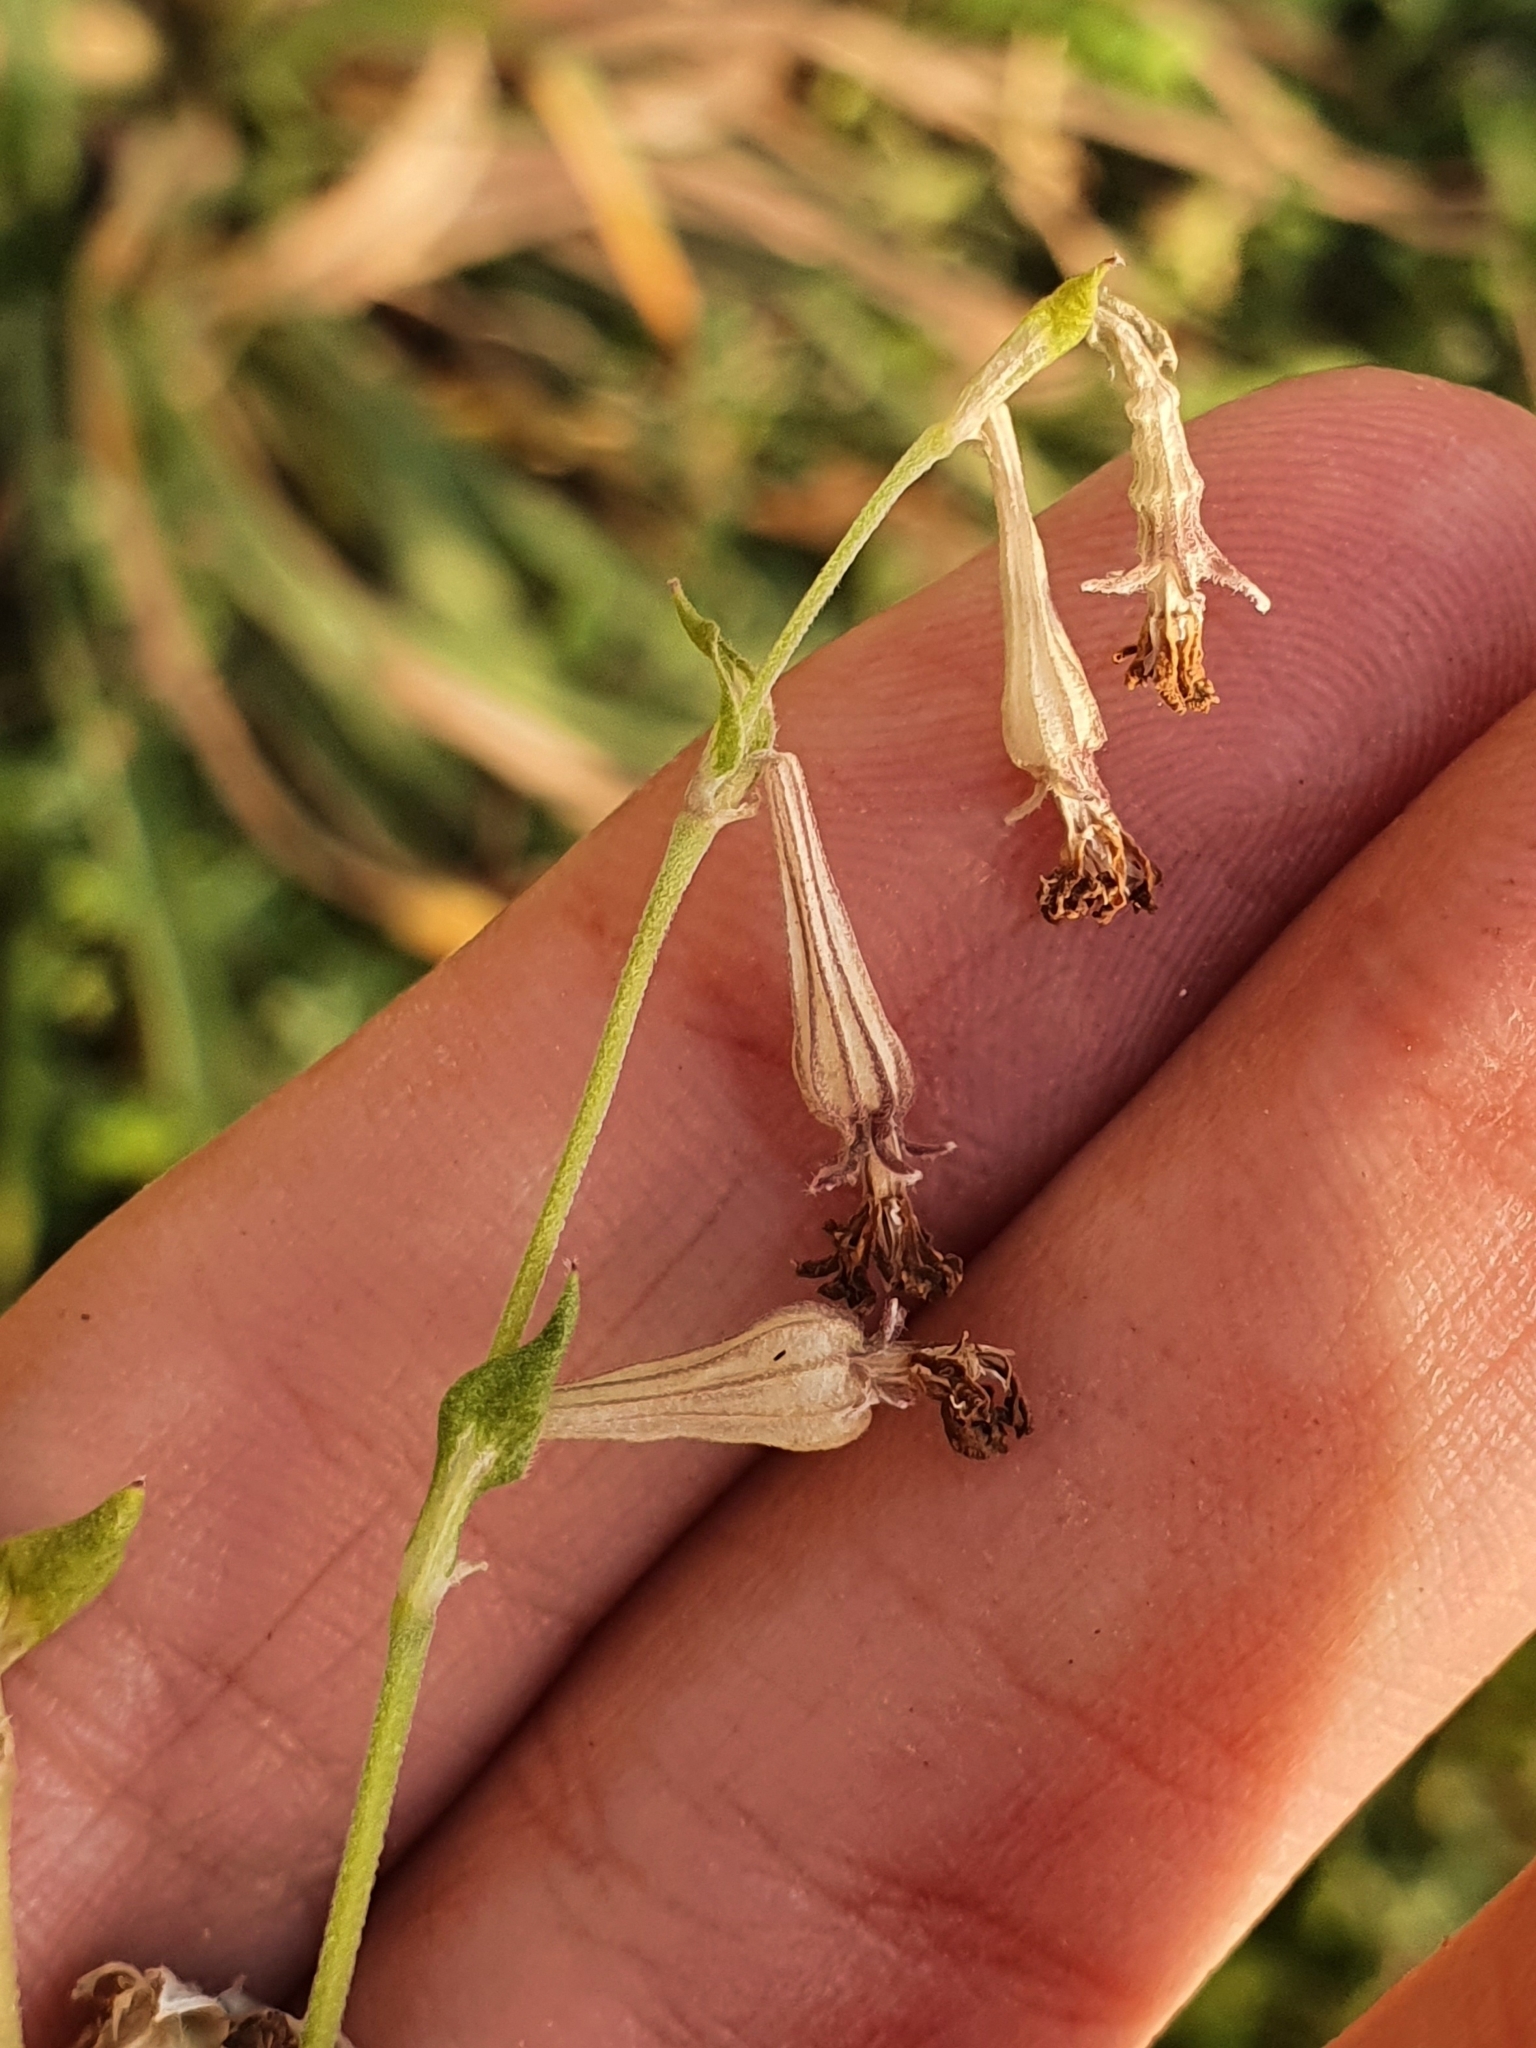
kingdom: Plantae
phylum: Tracheophyta
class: Magnoliopsida
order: Caryophyllales
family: Caryophyllaceae
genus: Silene
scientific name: Silene colorata
